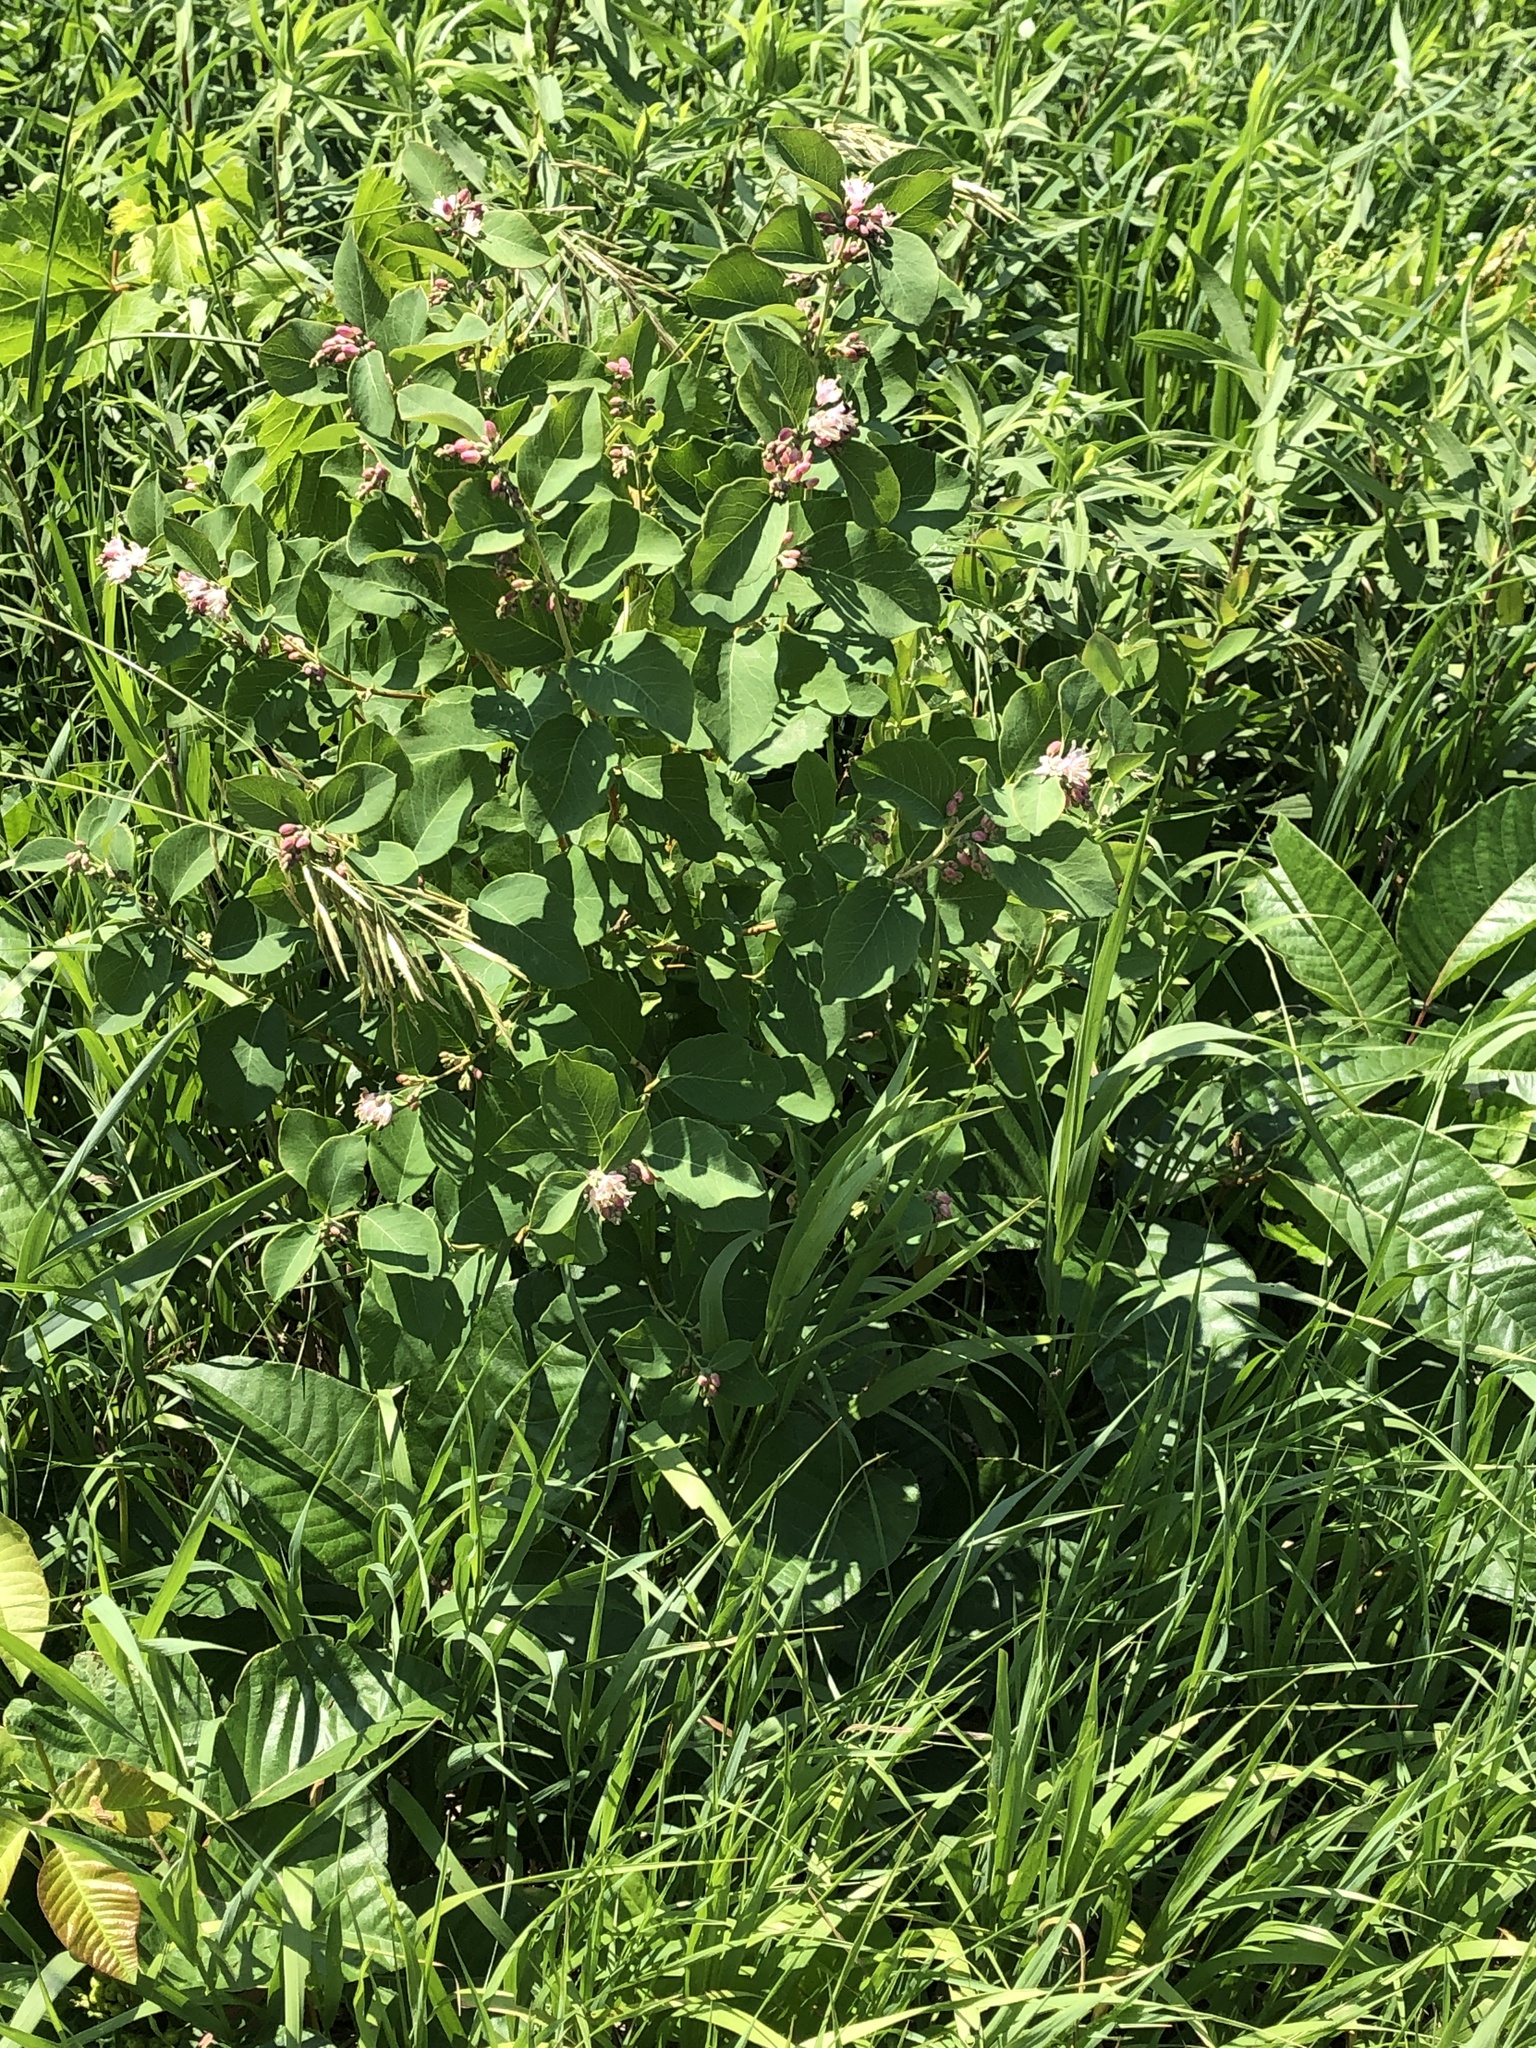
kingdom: Plantae
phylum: Tracheophyta
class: Magnoliopsida
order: Dipsacales
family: Caprifoliaceae
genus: Symphoricarpos
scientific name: Symphoricarpos occidentalis
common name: Wolfberry
